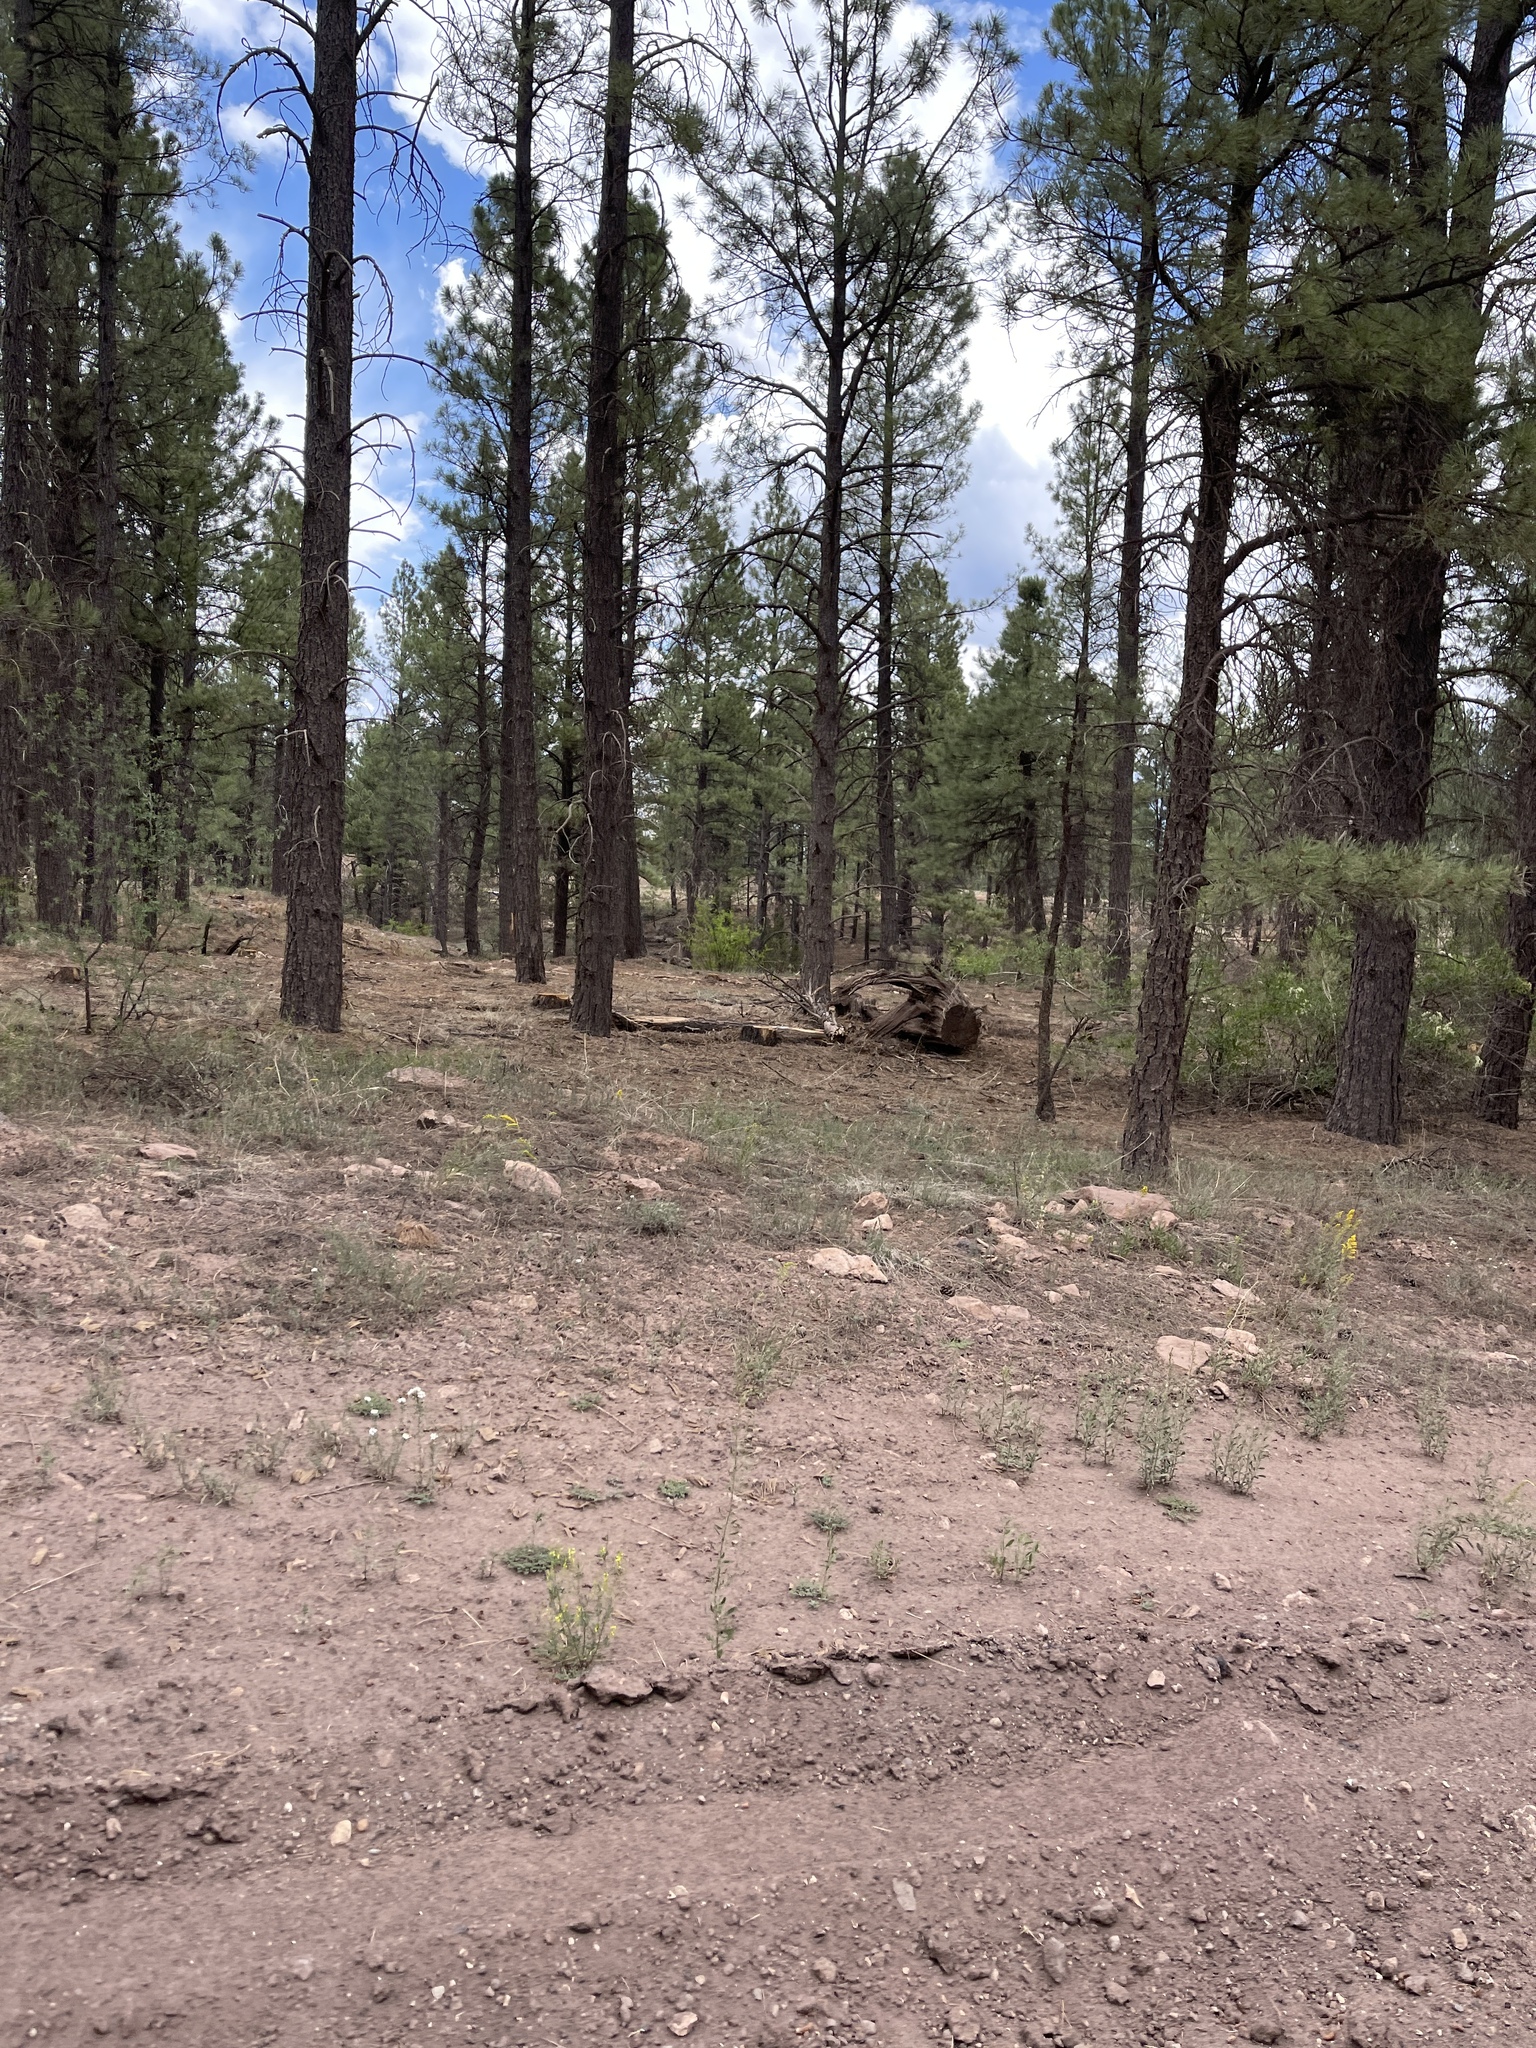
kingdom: Animalia
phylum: Chordata
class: Mammalia
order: Carnivora
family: Canidae
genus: Canis
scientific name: Canis latrans
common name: Coyote
